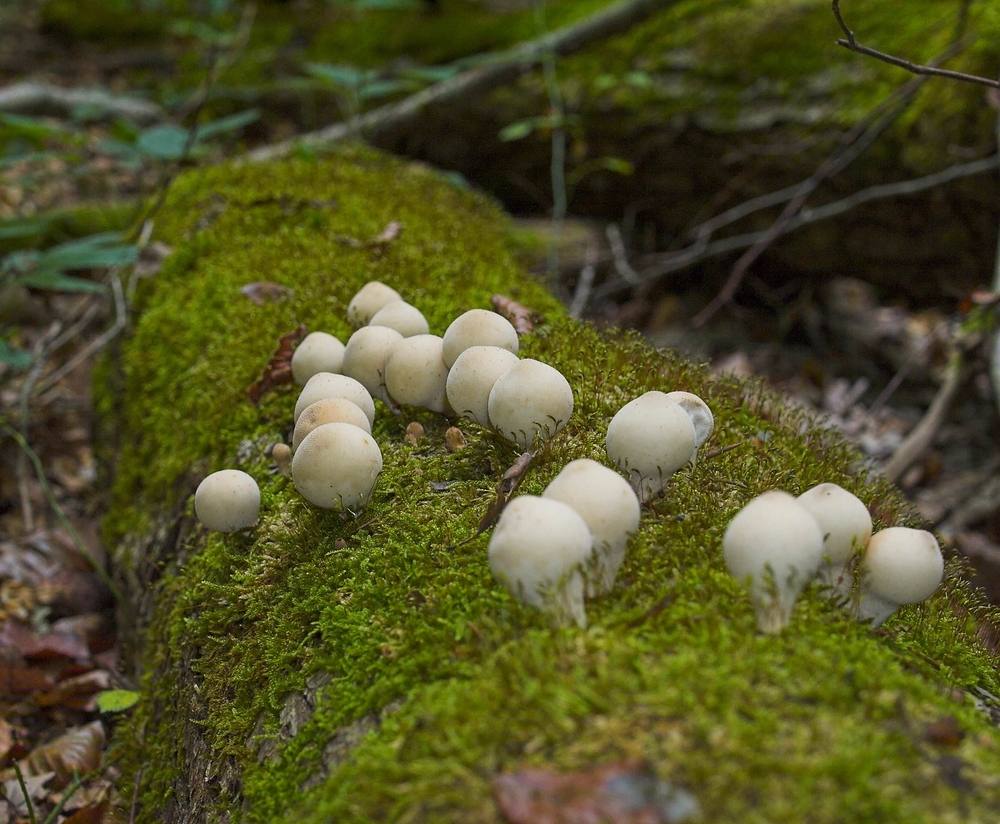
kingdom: Fungi
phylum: Basidiomycota
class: Agaricomycetes
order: Agaricales
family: Lycoperdaceae
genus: Apioperdon
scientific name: Apioperdon pyriforme
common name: Pear-shaped puffball
